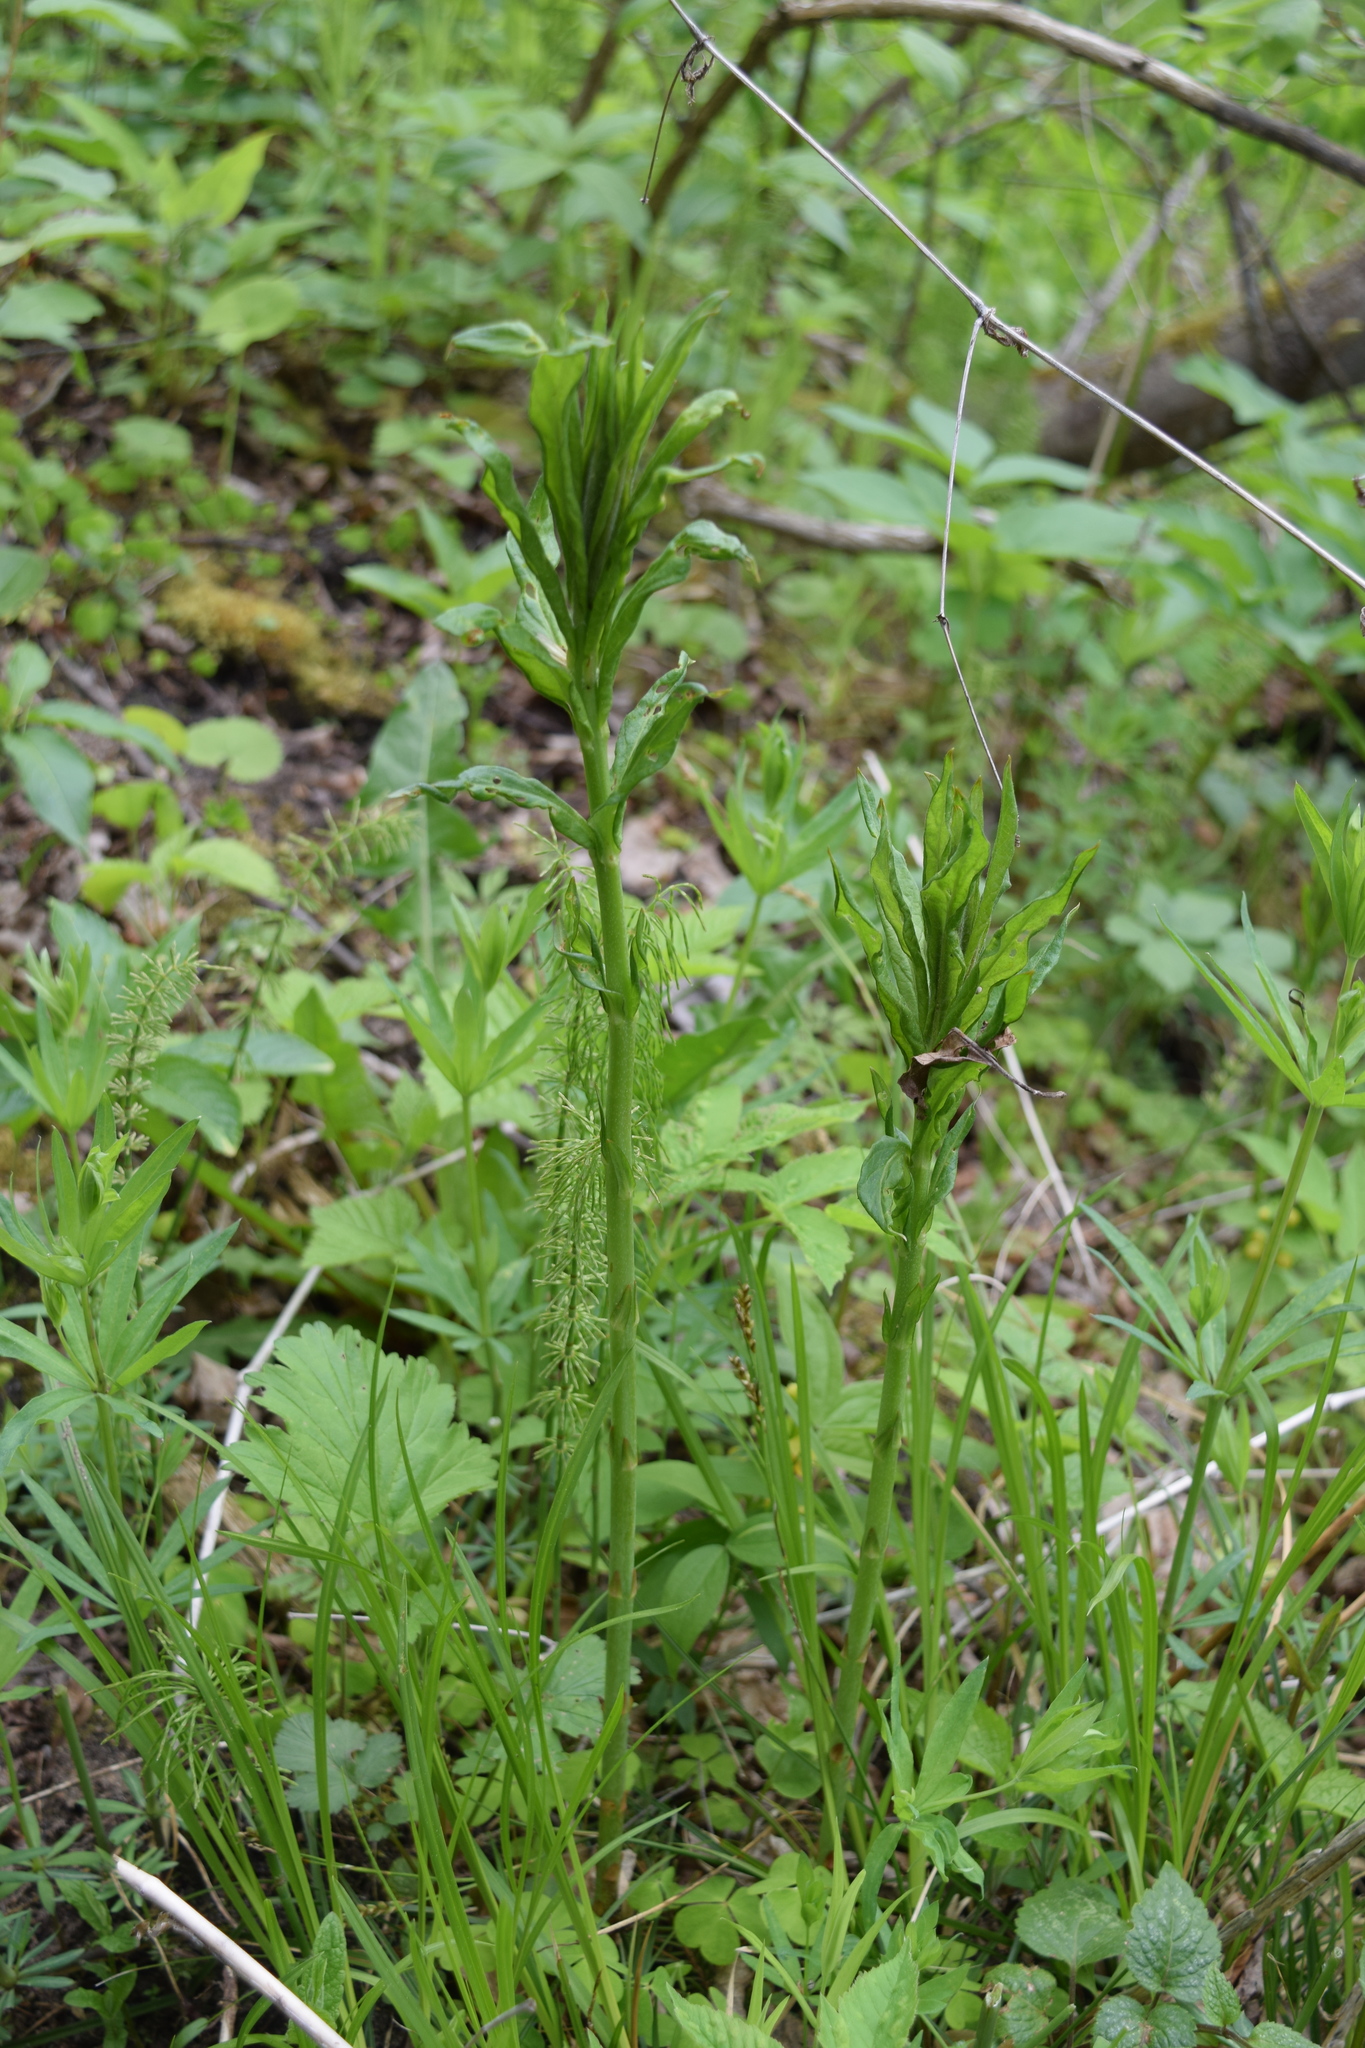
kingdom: Plantae
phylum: Tracheophyta
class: Magnoliopsida
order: Ericales
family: Primulaceae
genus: Lysimachia
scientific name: Lysimachia vulgaris
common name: Yellow loosestrife
